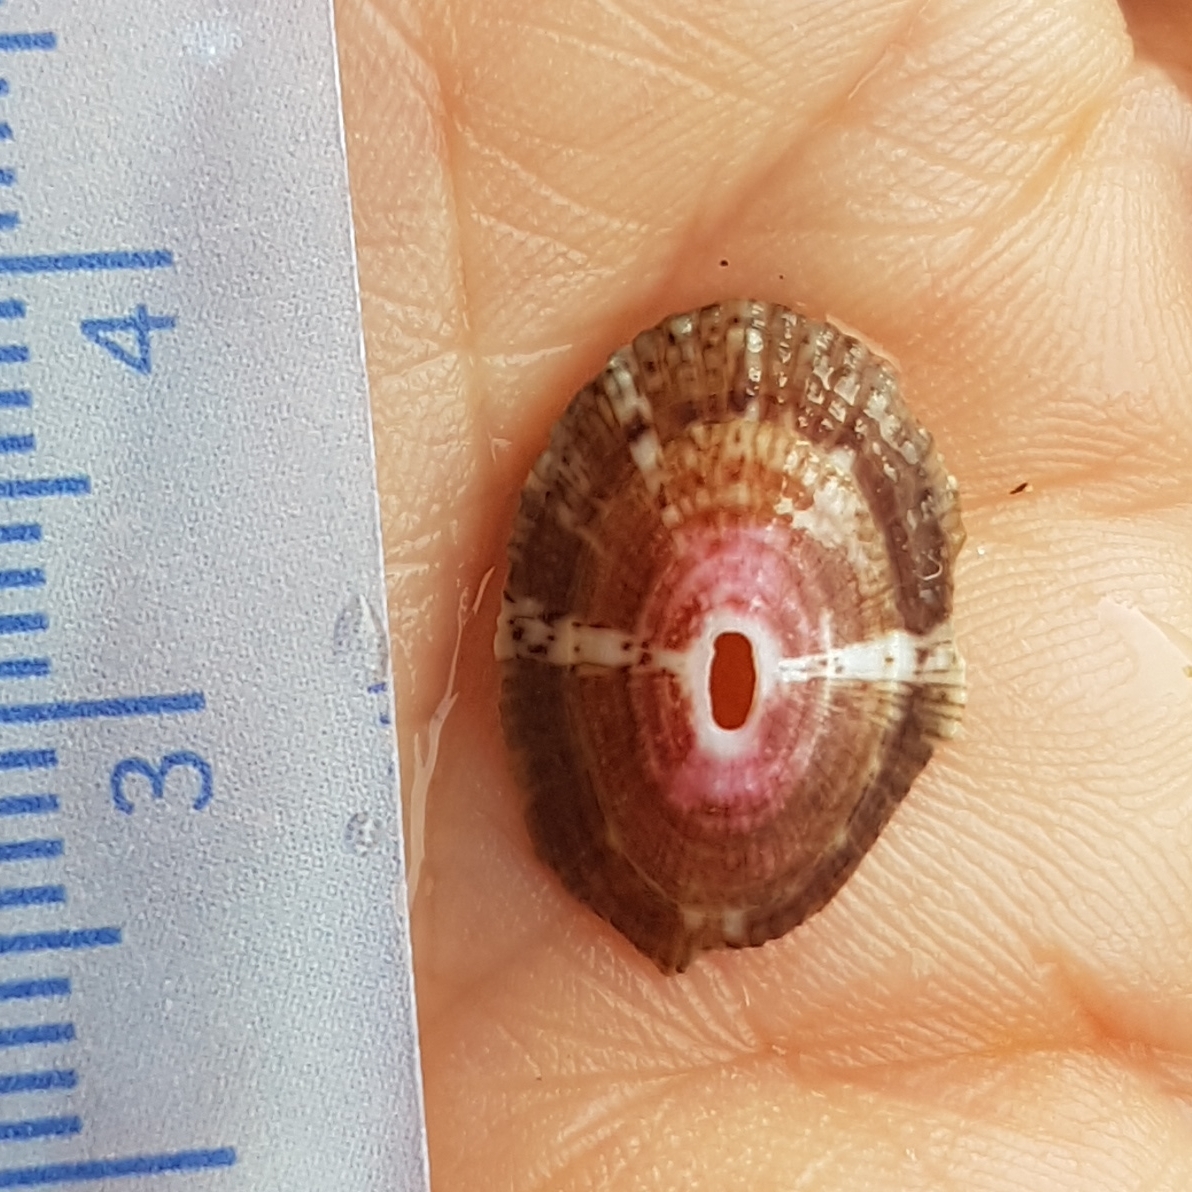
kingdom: Animalia
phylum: Mollusca
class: Gastropoda
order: Lepetellida
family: Fissurellidae
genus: Fissurella
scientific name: Fissurella nubecula
